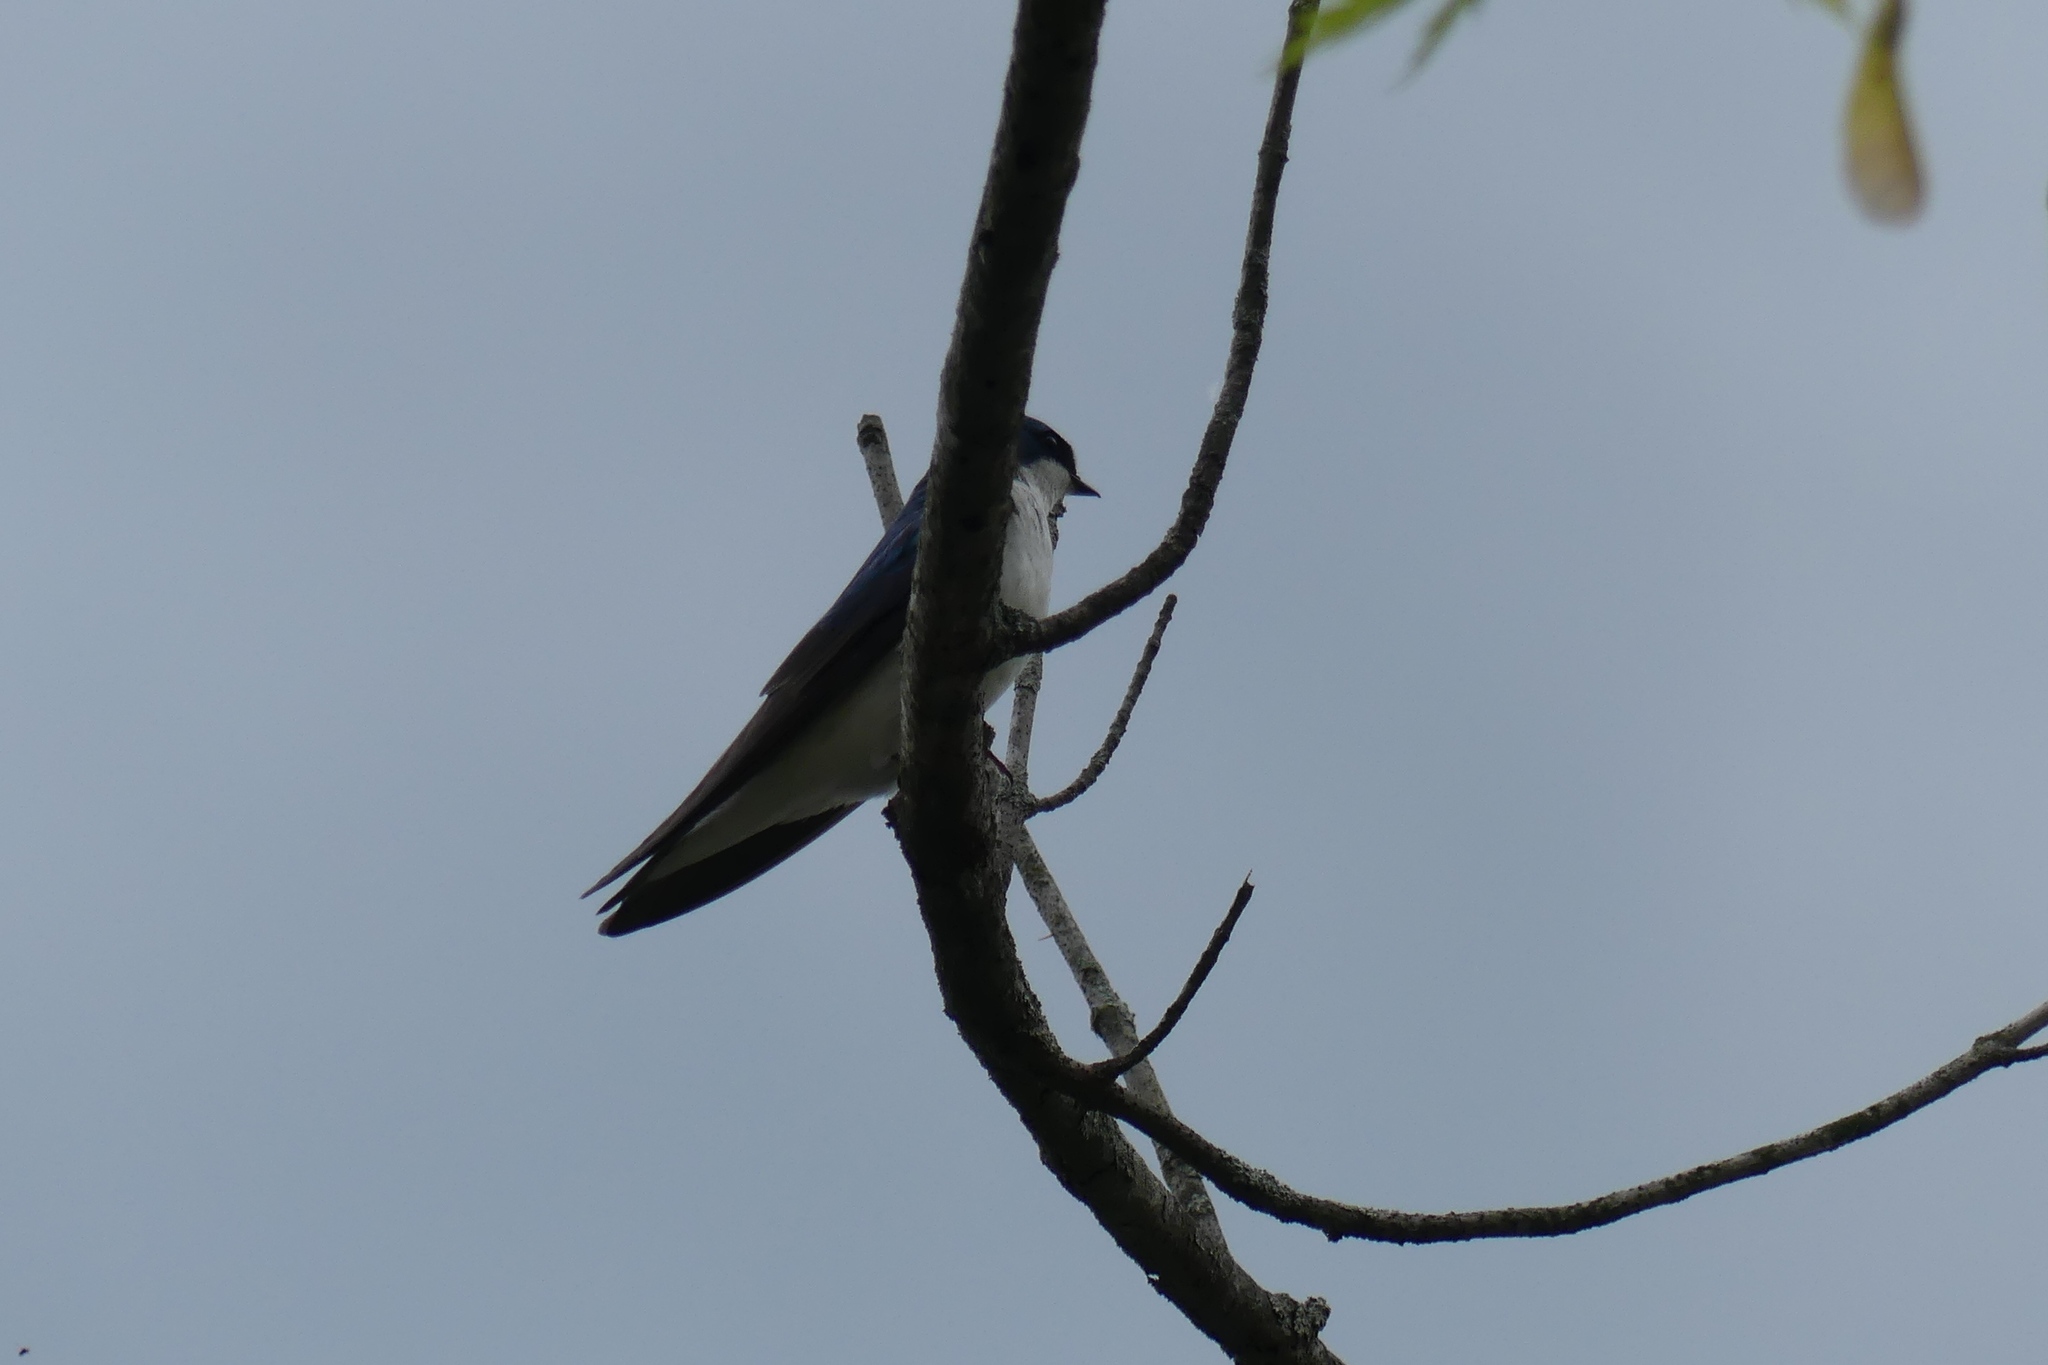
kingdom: Animalia
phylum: Chordata
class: Aves
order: Passeriformes
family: Hirundinidae
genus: Tachycineta
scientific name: Tachycineta bicolor
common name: Tree swallow
